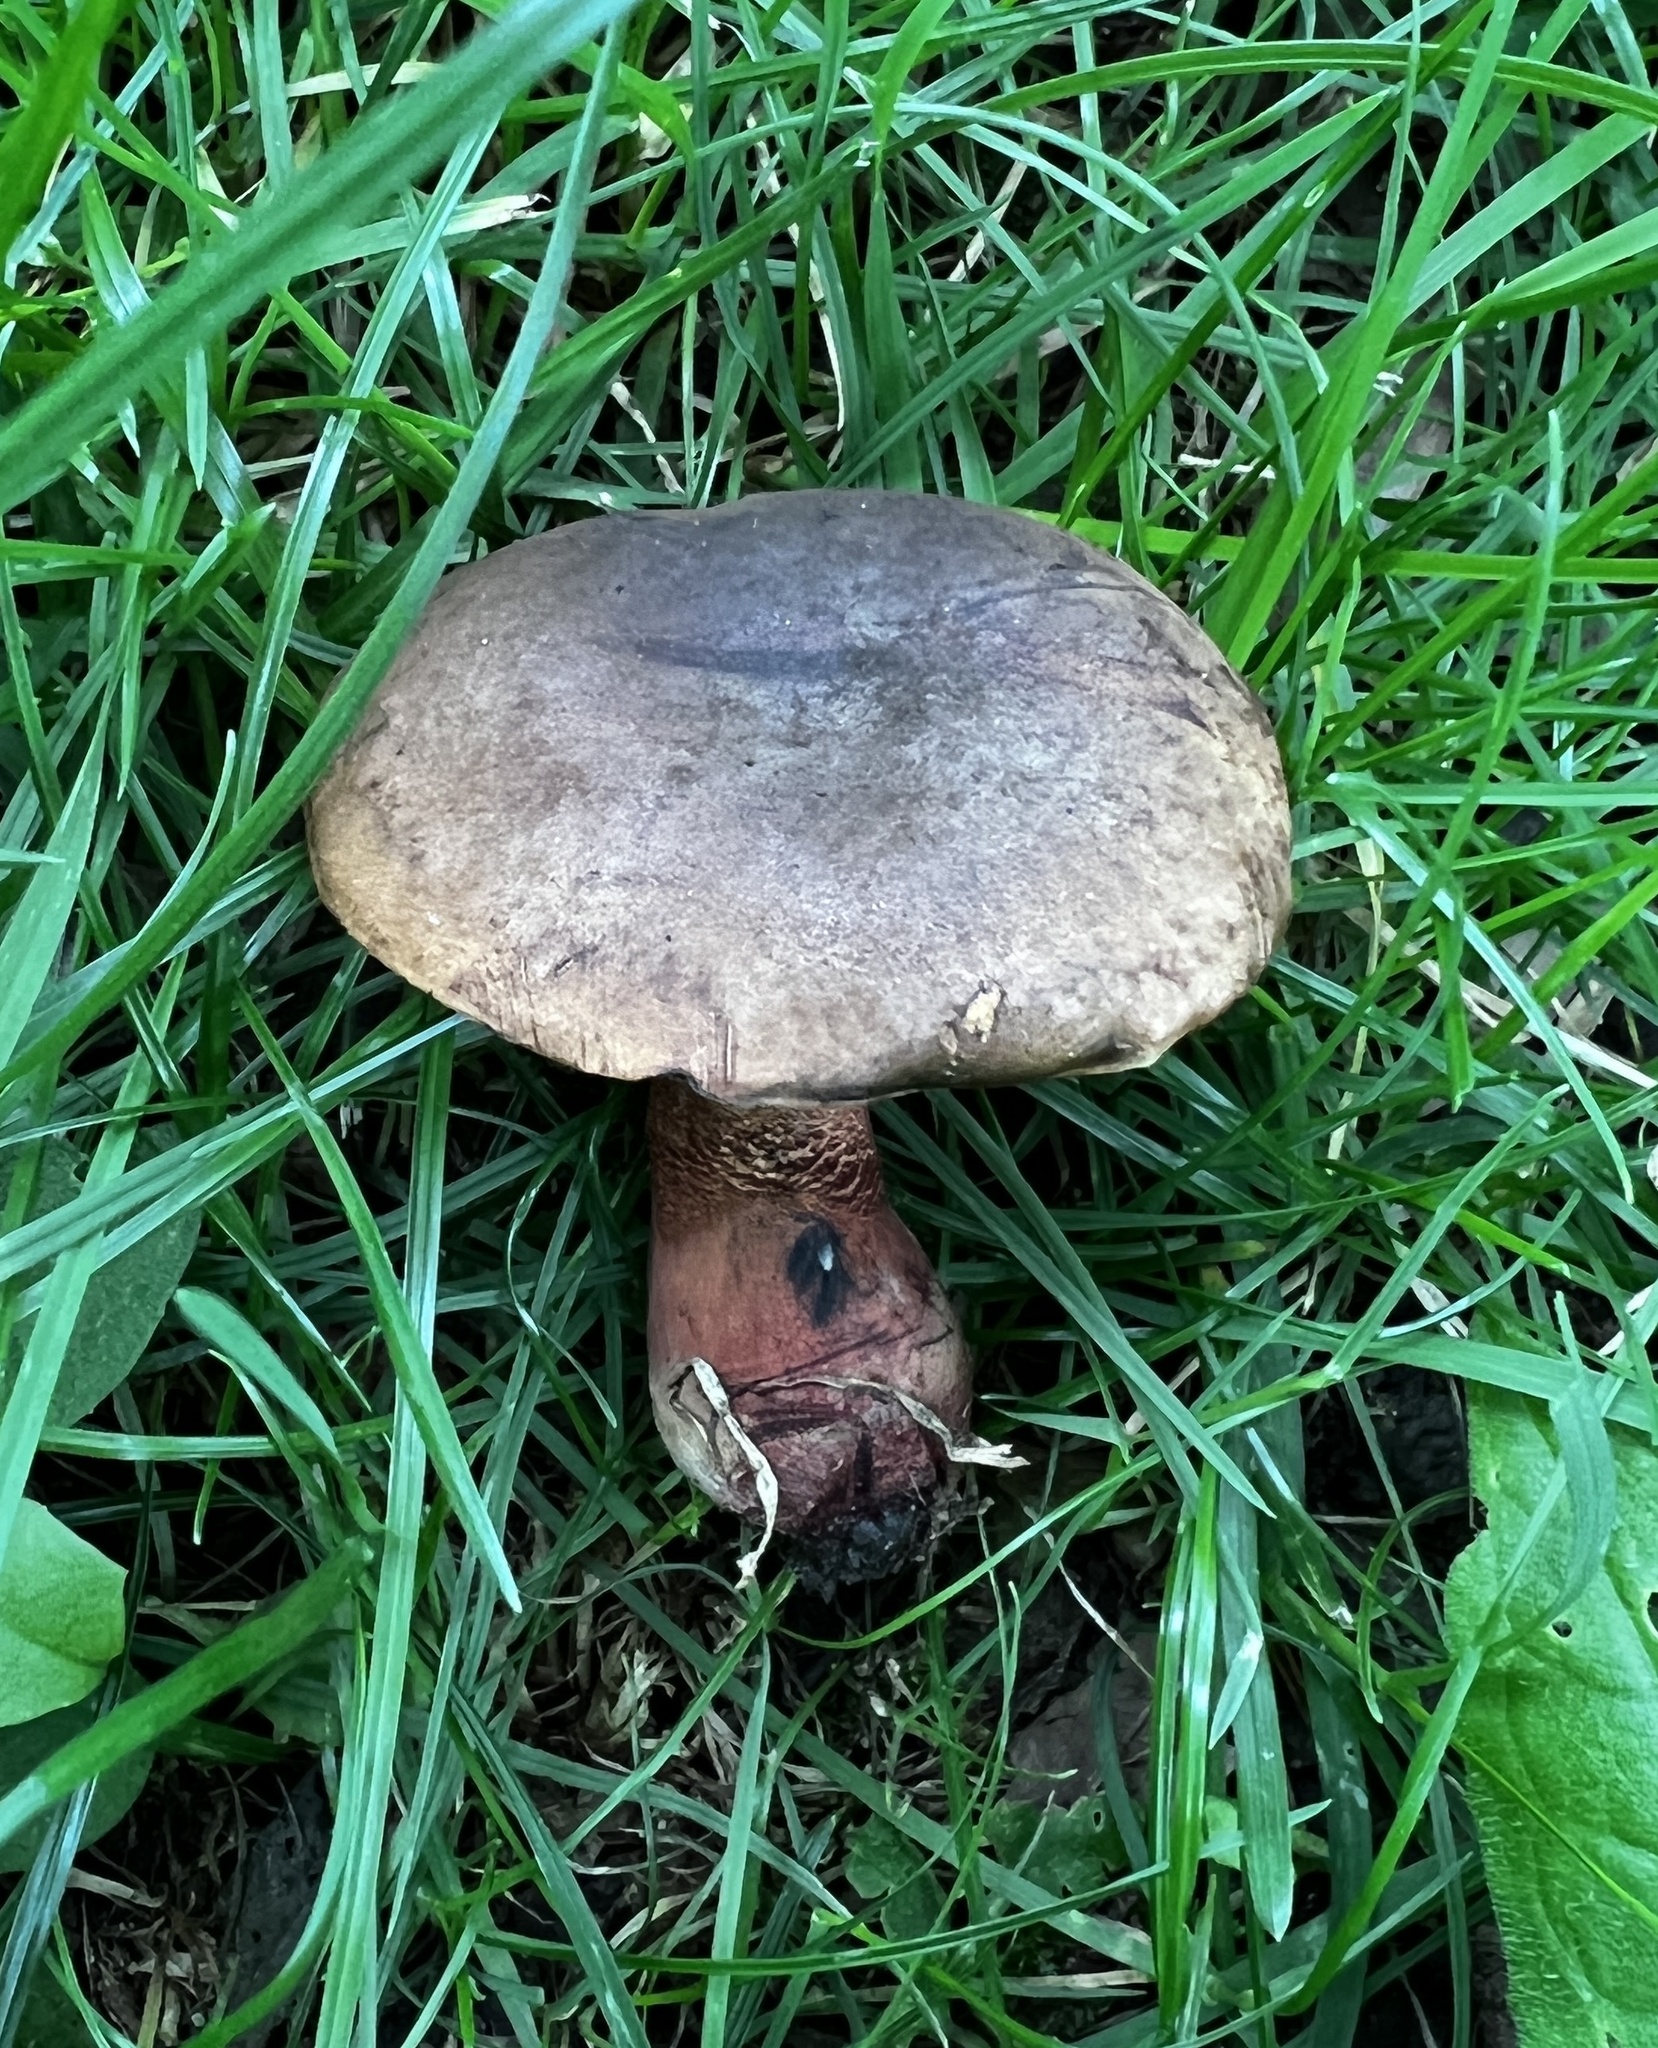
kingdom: Fungi
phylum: Basidiomycota
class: Agaricomycetes
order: Boletales
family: Boletaceae
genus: Neoboletus
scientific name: Neoboletus luridiformis
